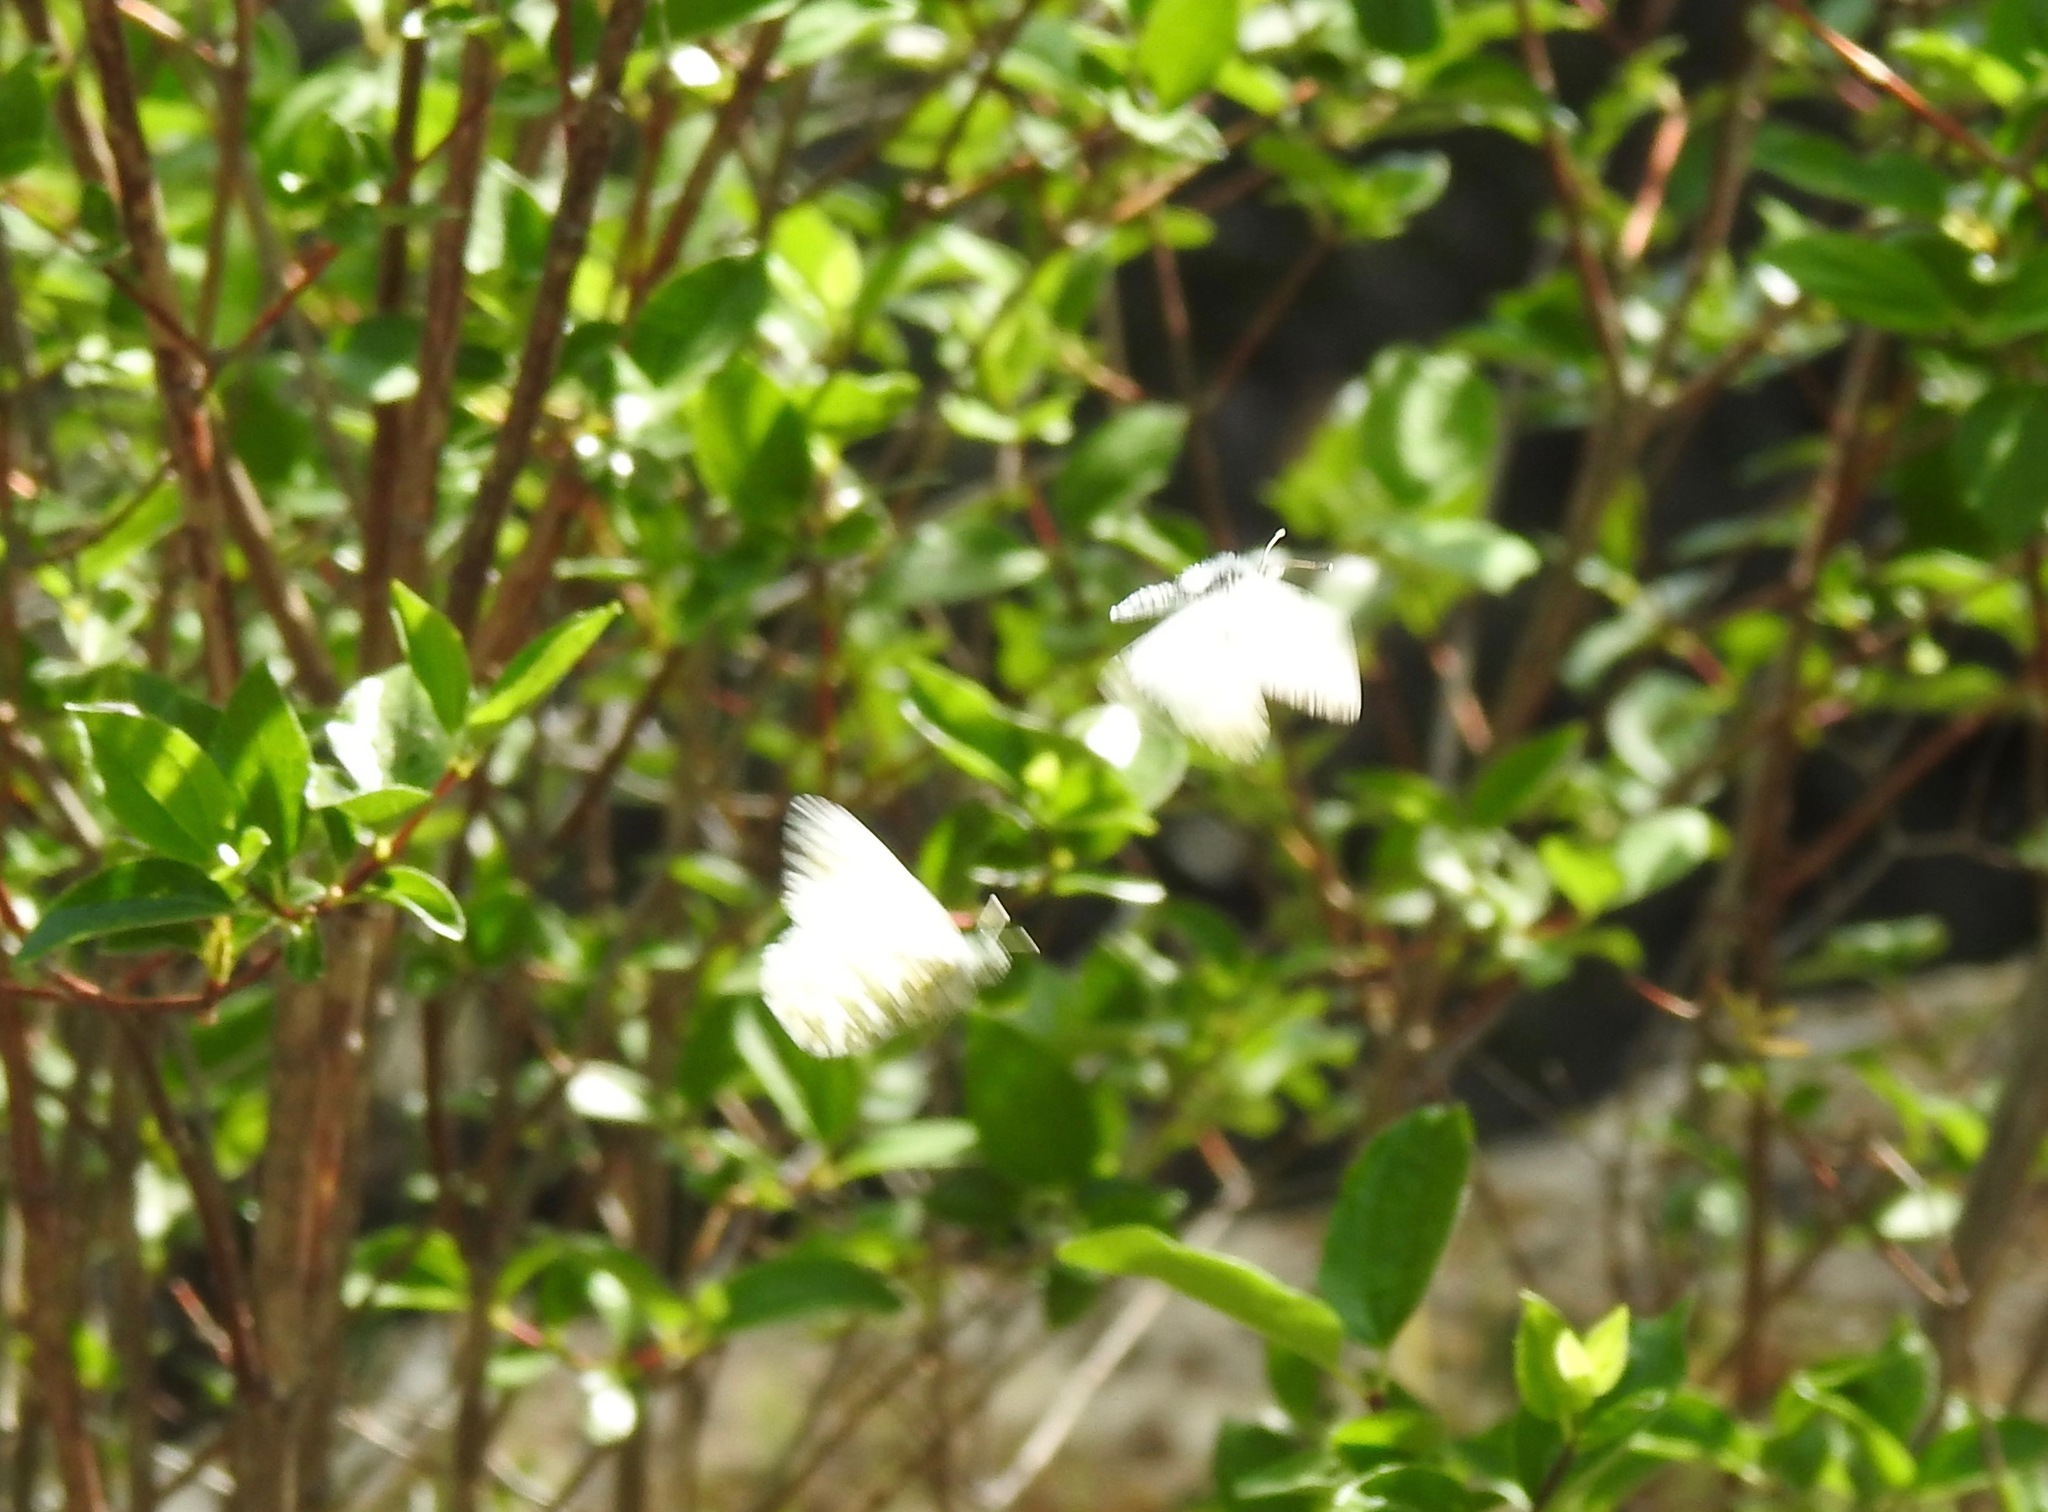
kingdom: Animalia
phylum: Arthropoda
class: Insecta
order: Lepidoptera
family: Pieridae
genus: Pieris
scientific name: Pieris marginalis
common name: Margined white
